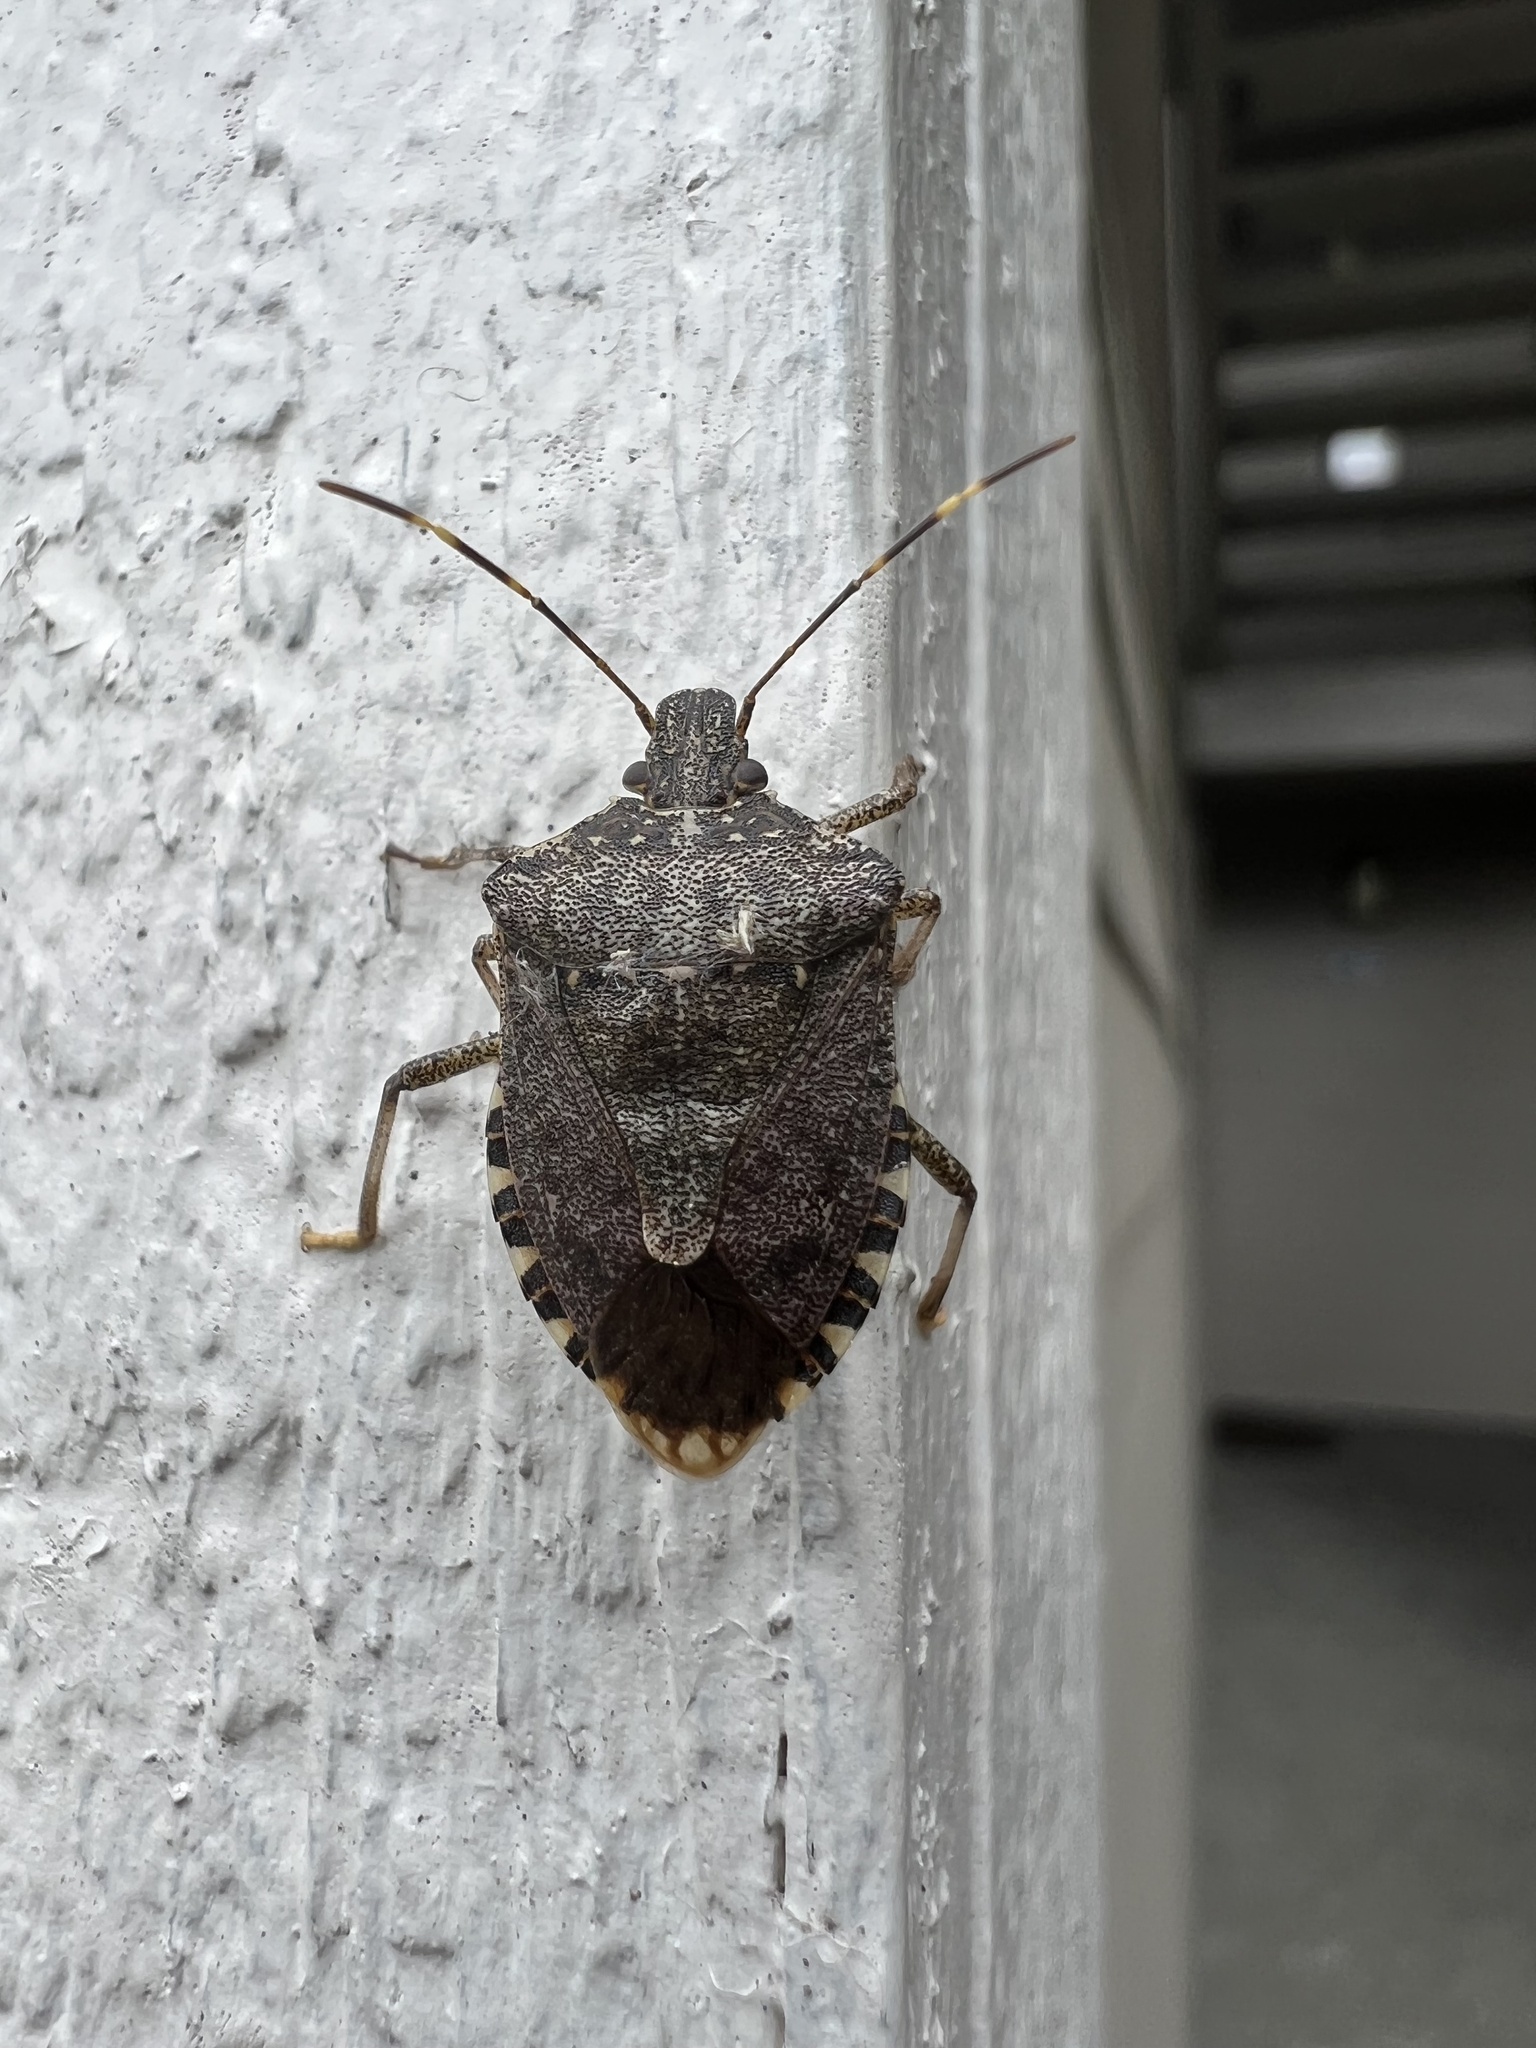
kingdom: Animalia
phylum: Arthropoda
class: Insecta
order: Hemiptera
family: Pentatomidae
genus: Halyomorpha
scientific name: Halyomorpha halys
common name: Brown marmorated stink bug
